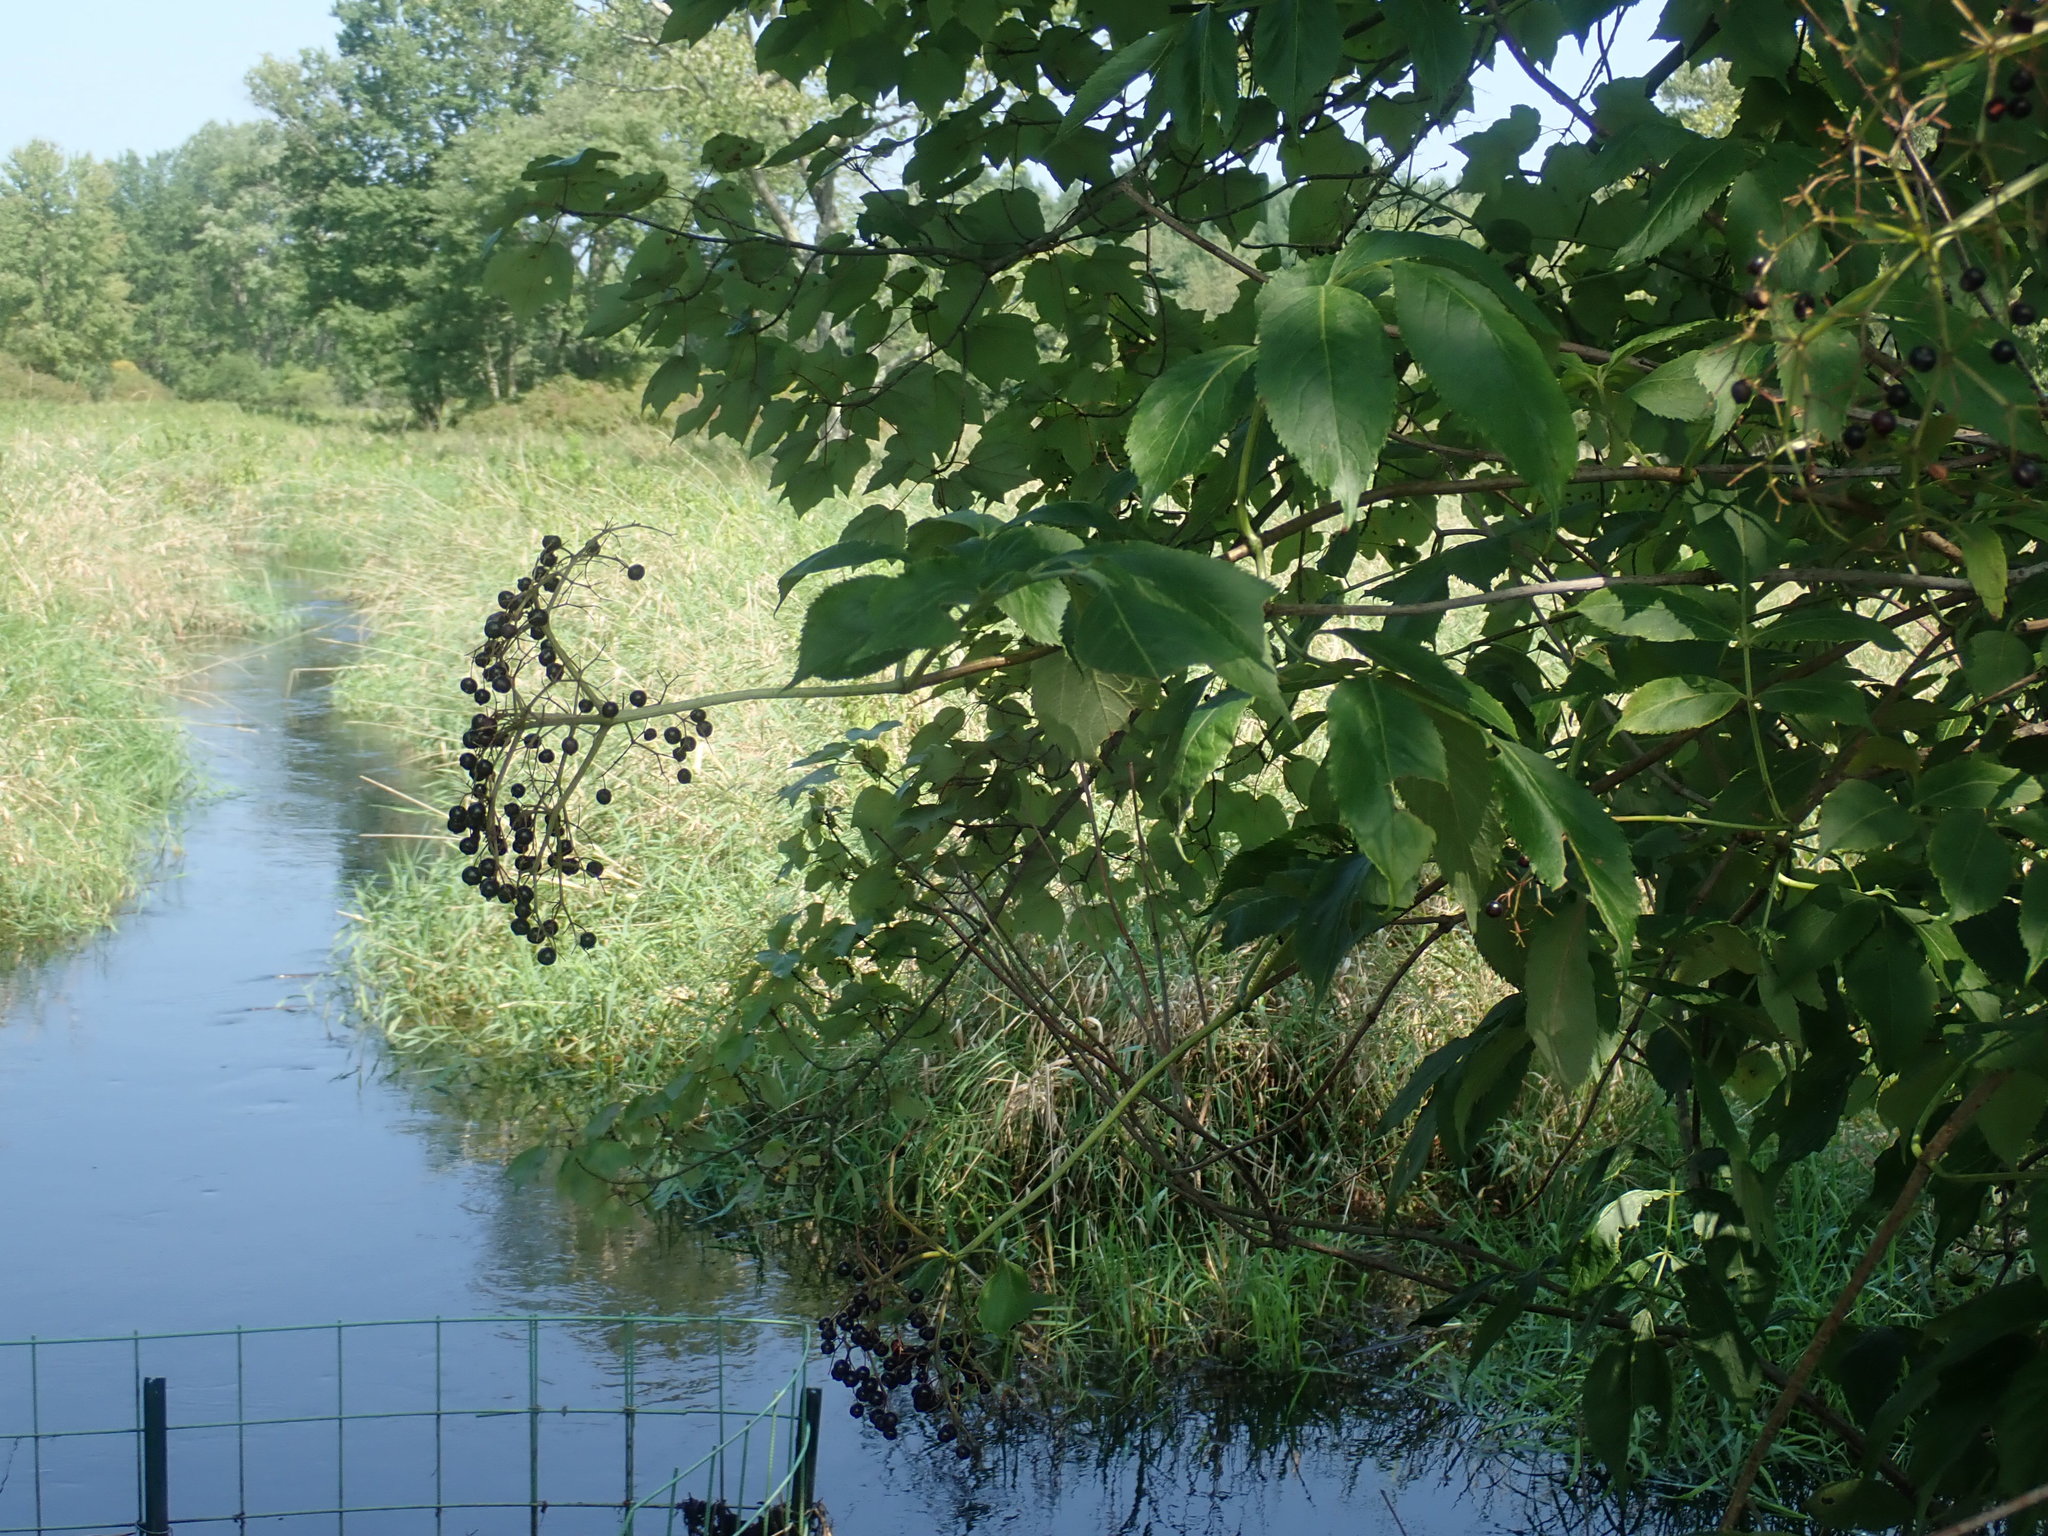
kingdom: Plantae
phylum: Tracheophyta
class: Magnoliopsida
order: Dipsacales
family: Viburnaceae
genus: Sambucus
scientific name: Sambucus canadensis
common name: American elder
